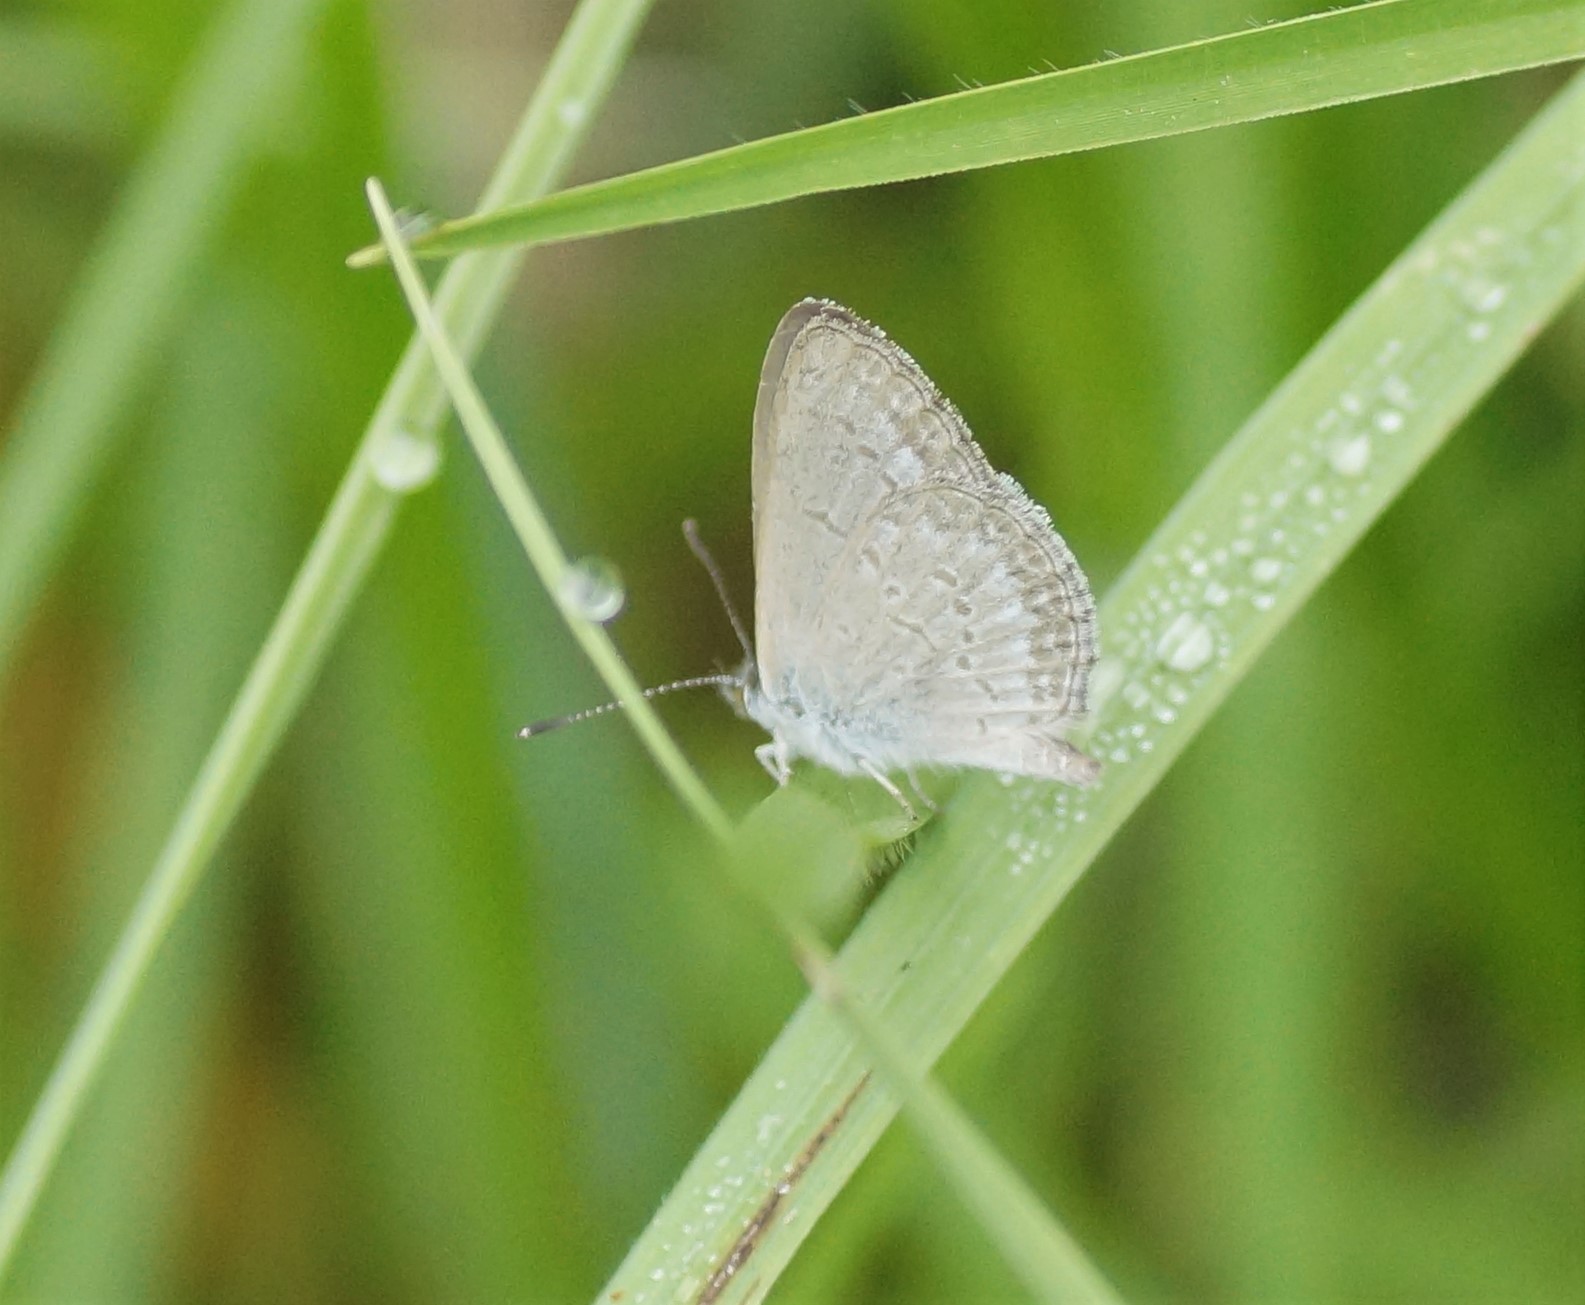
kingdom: Animalia
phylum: Arthropoda
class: Insecta
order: Lepidoptera
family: Lycaenidae
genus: Zizina
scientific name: Zizina labradus
